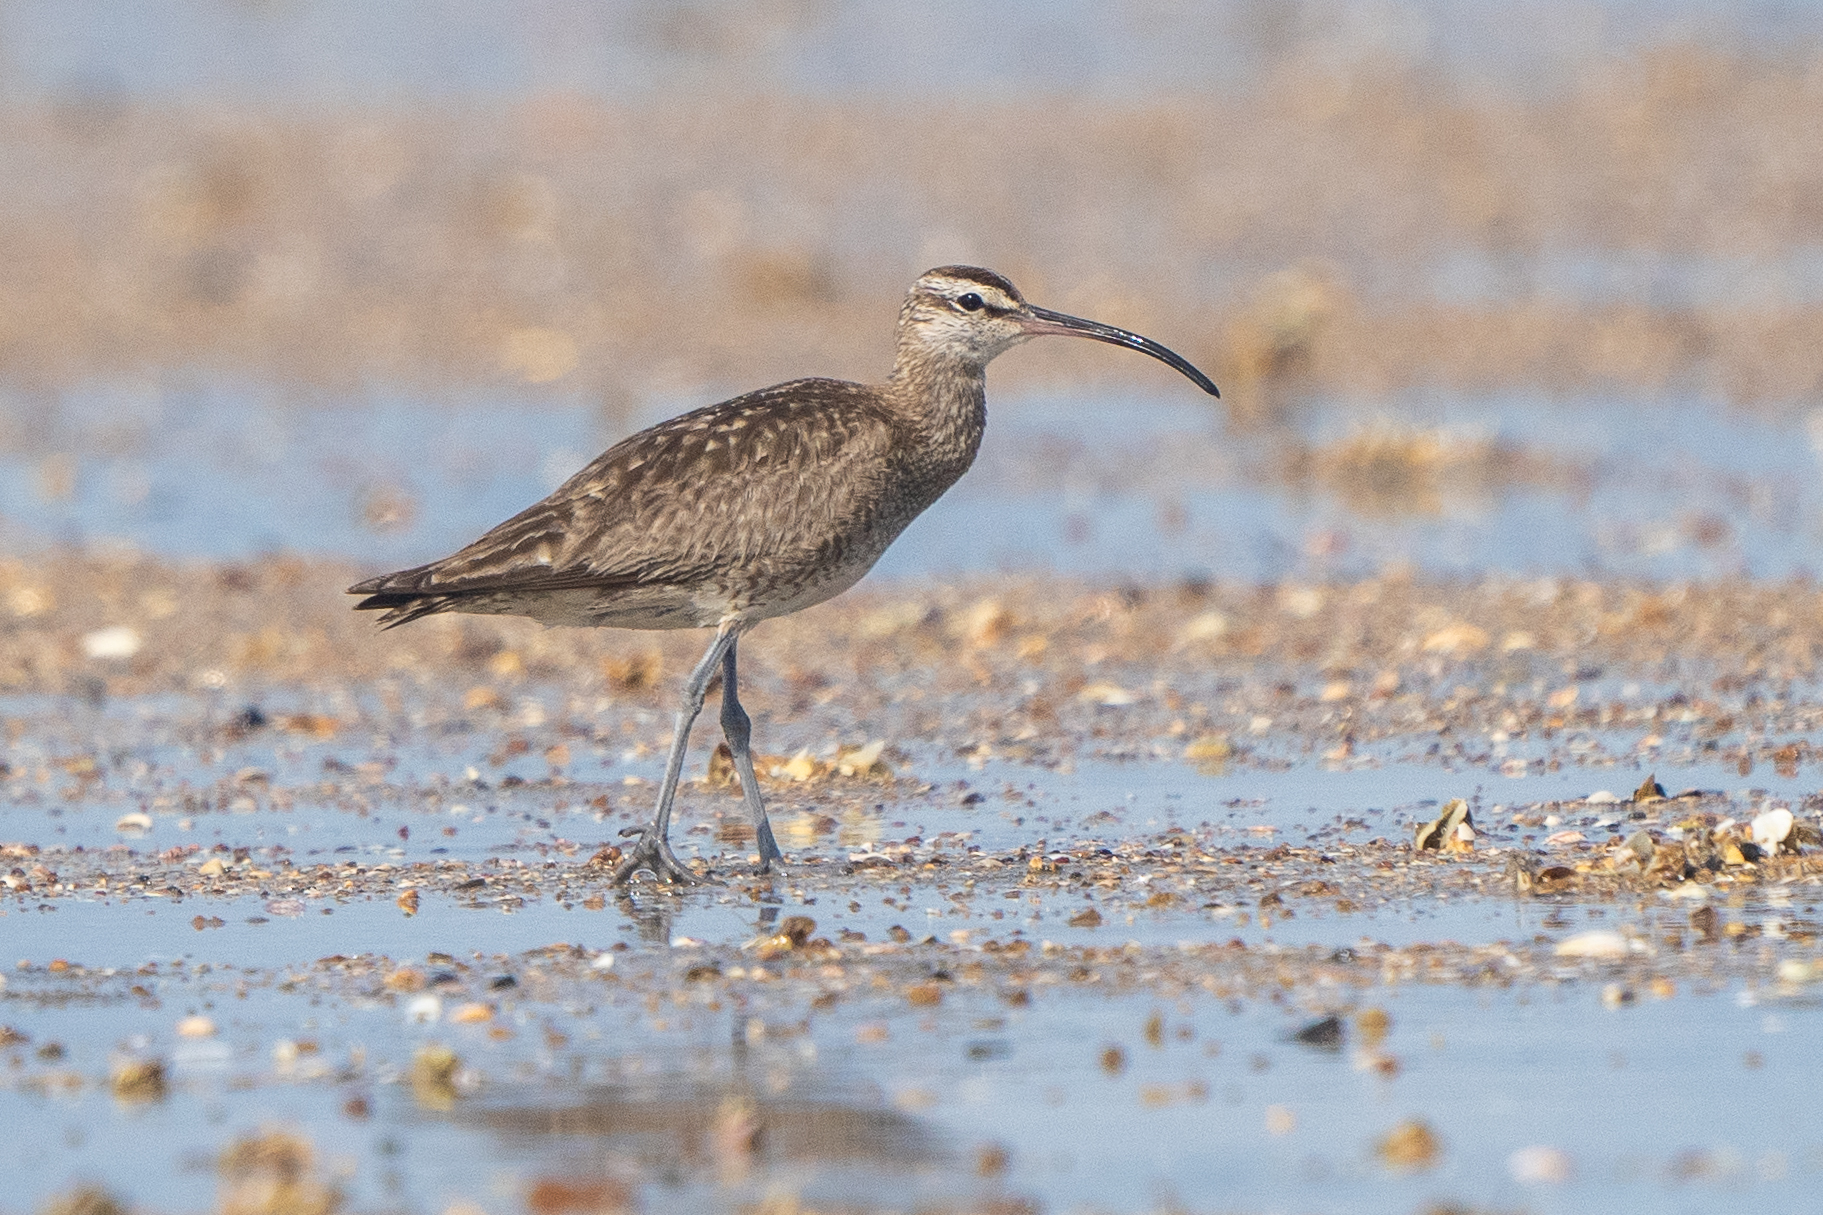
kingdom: Animalia
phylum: Chordata
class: Aves
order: Charadriiformes
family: Scolopacidae
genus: Numenius
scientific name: Numenius phaeopus
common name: Whimbrel
